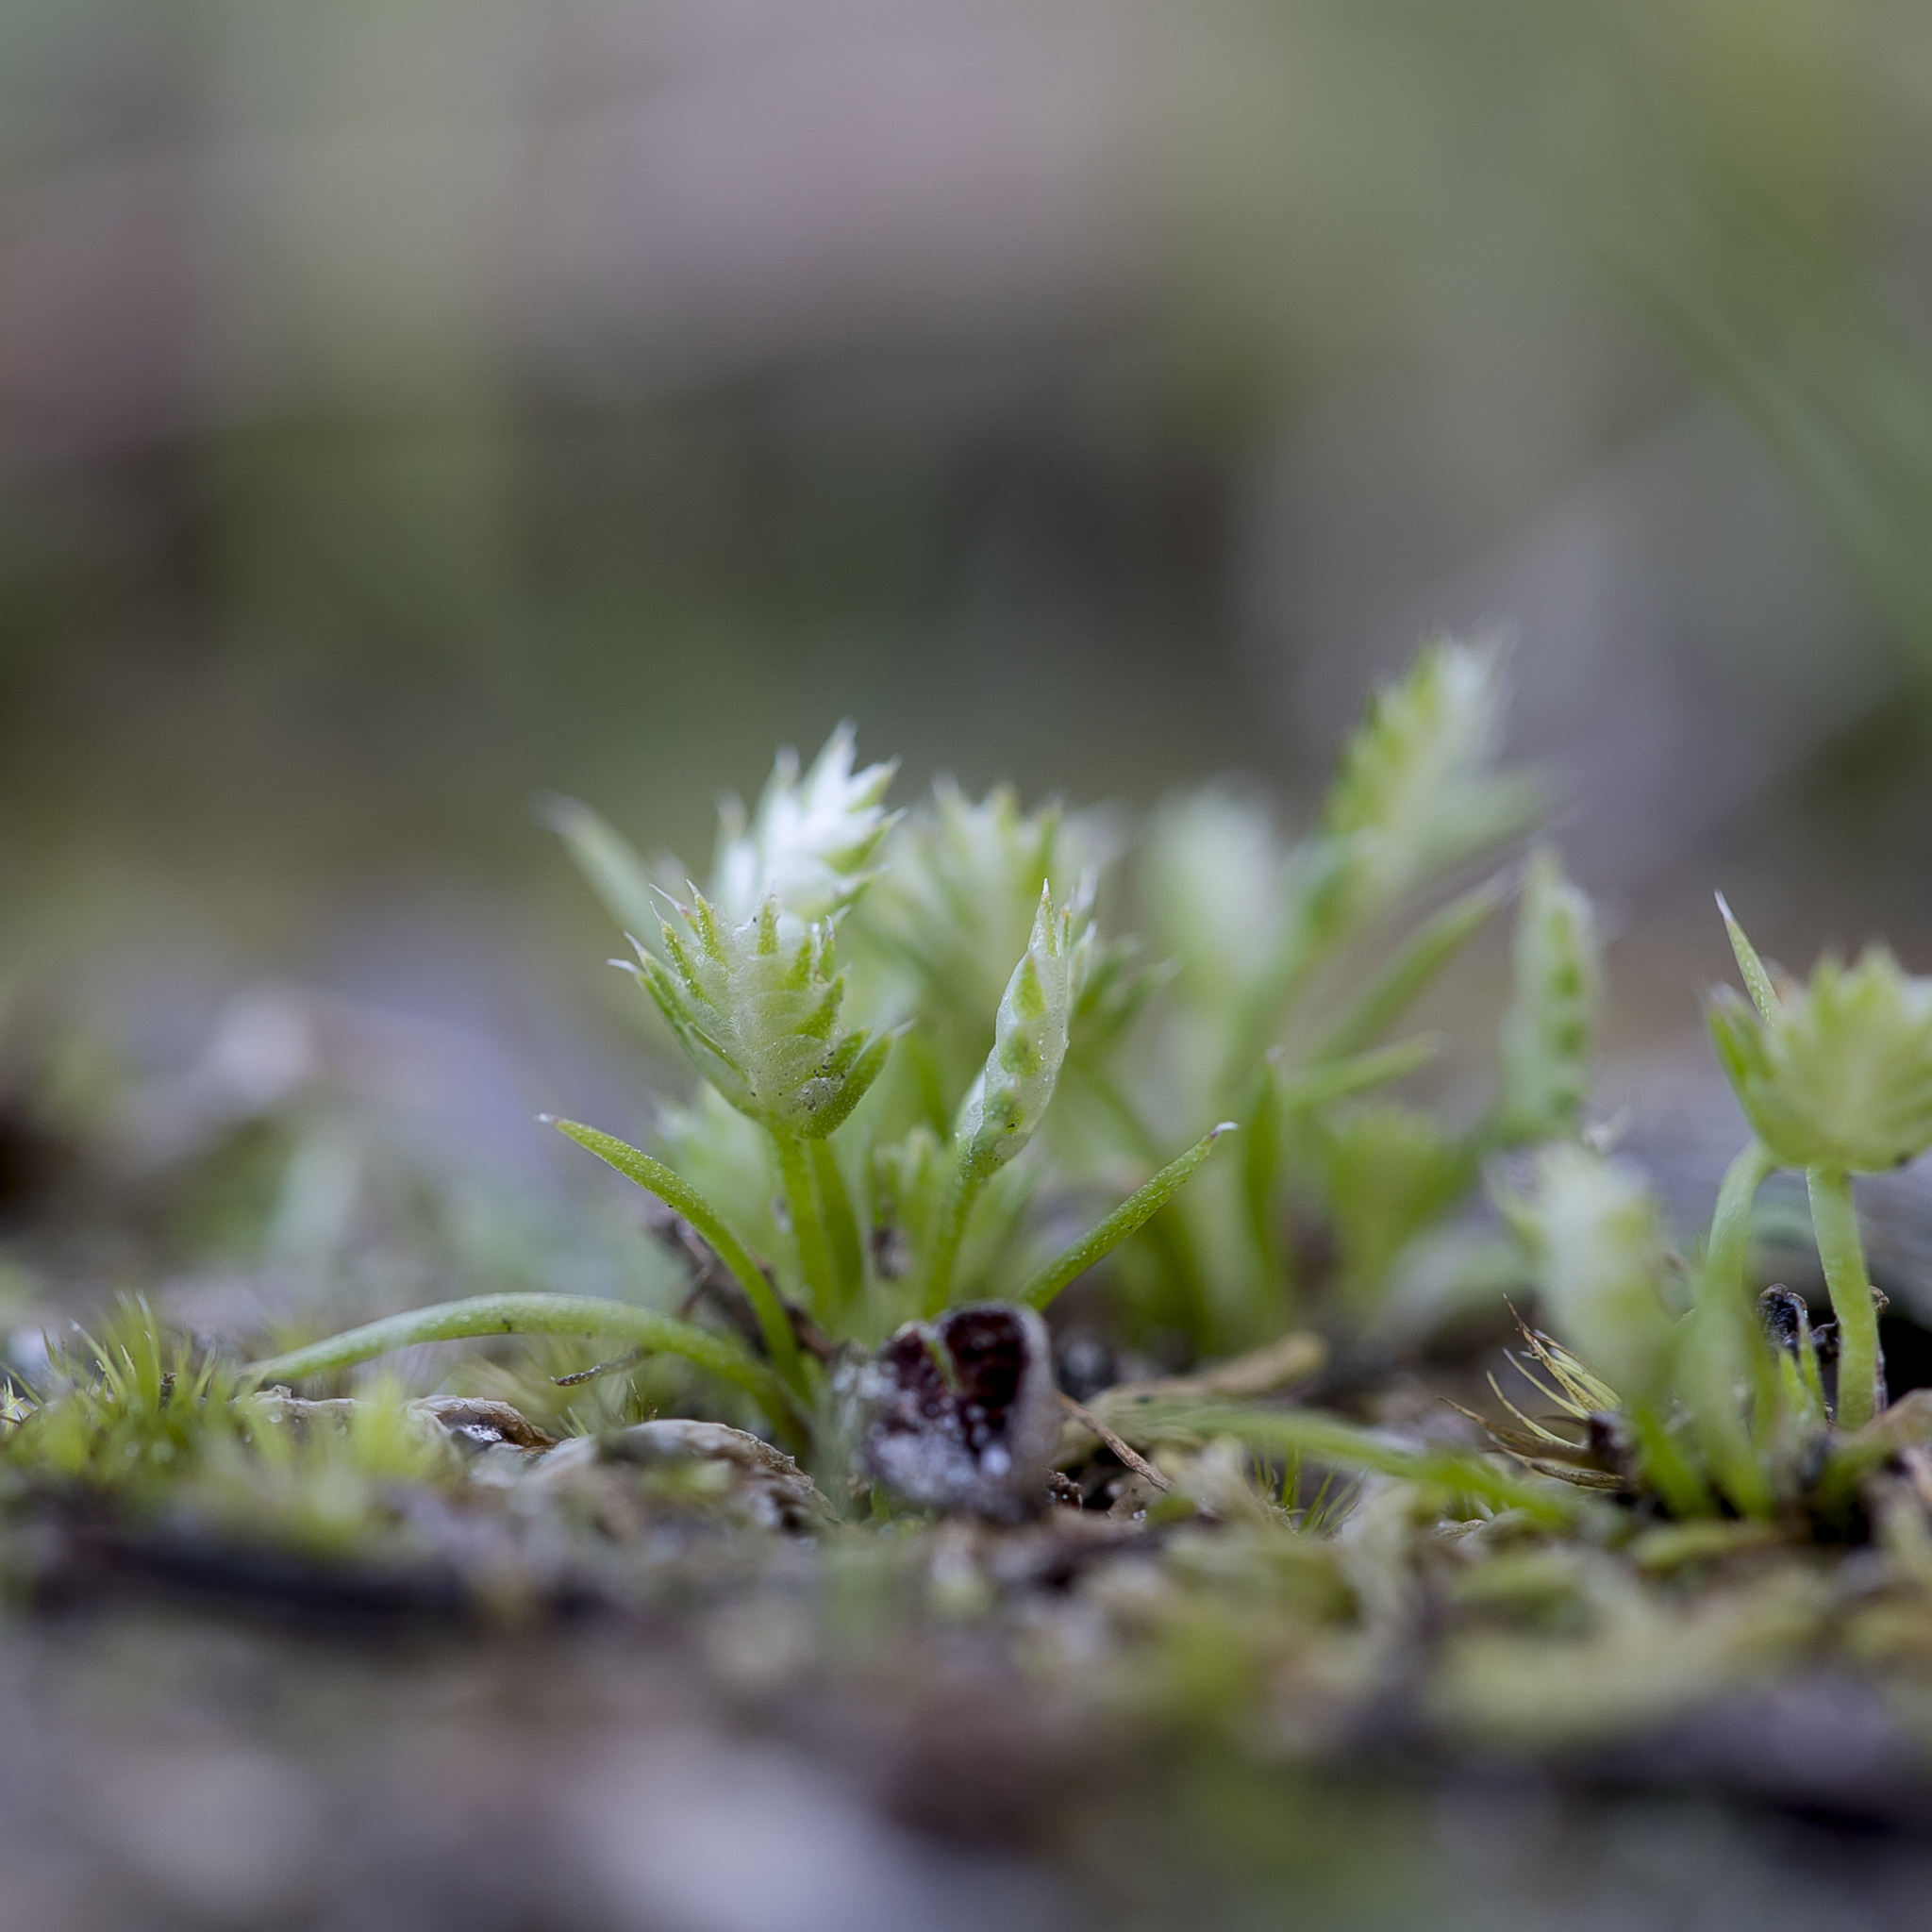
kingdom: Plantae
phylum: Tracheophyta
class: Liliopsida
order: Poales
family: Restionaceae
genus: Aphelia
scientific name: Aphelia pumilio
